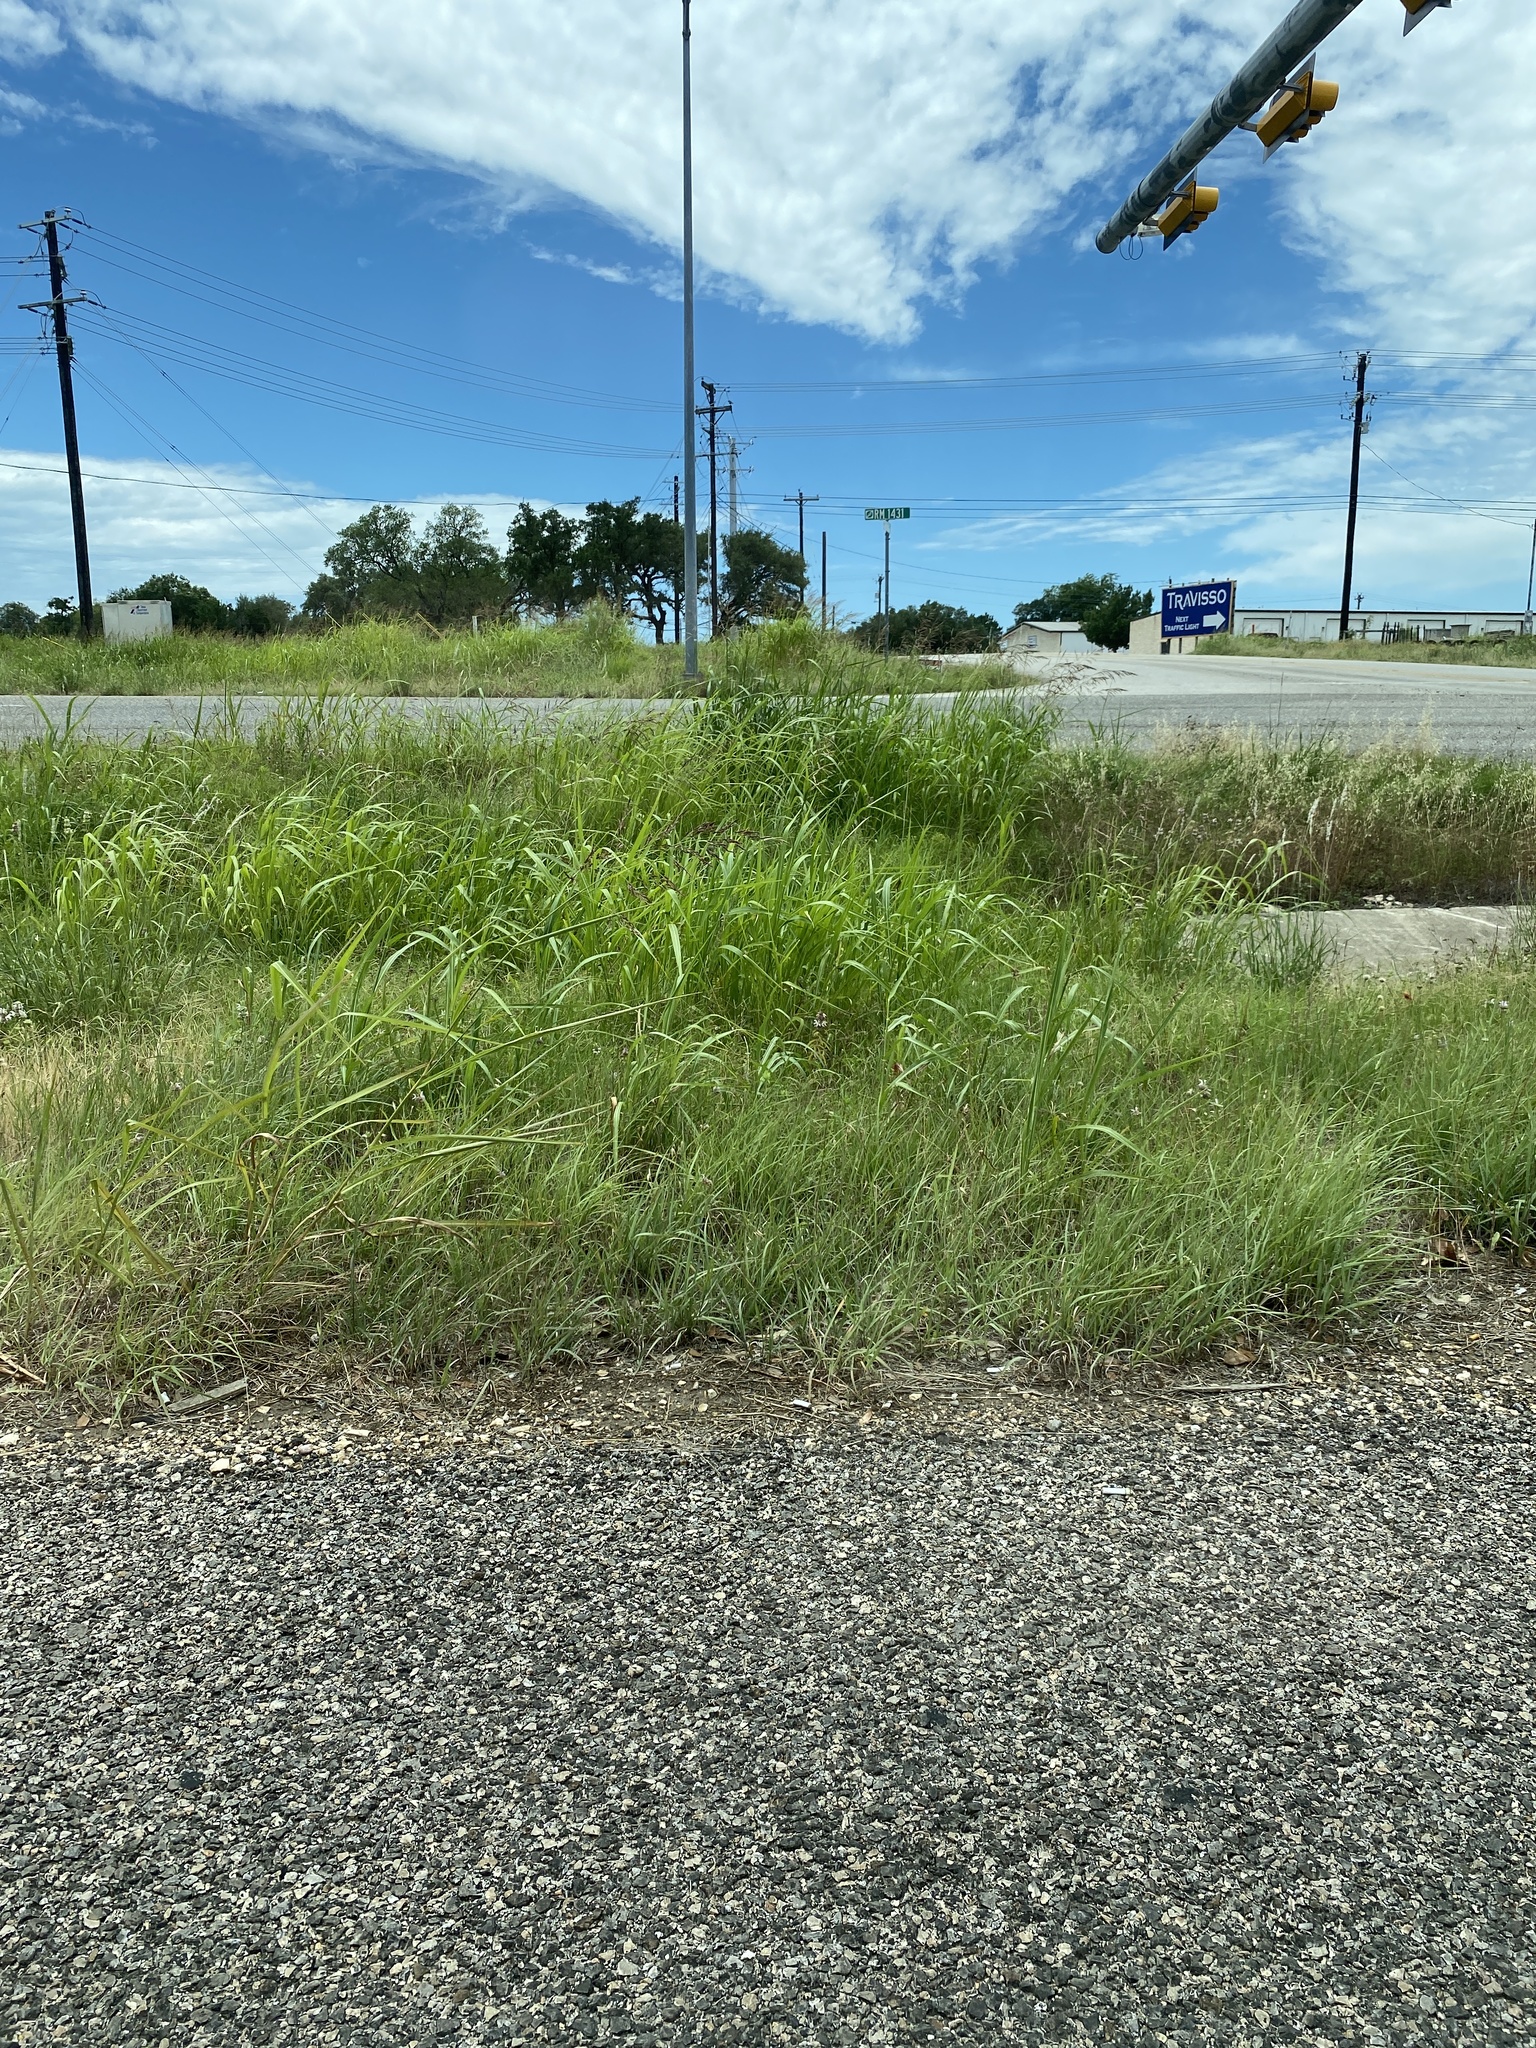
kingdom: Plantae
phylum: Tracheophyta
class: Liliopsida
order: Poales
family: Poaceae
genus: Sorghum
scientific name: Sorghum halepense
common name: Johnson-grass
